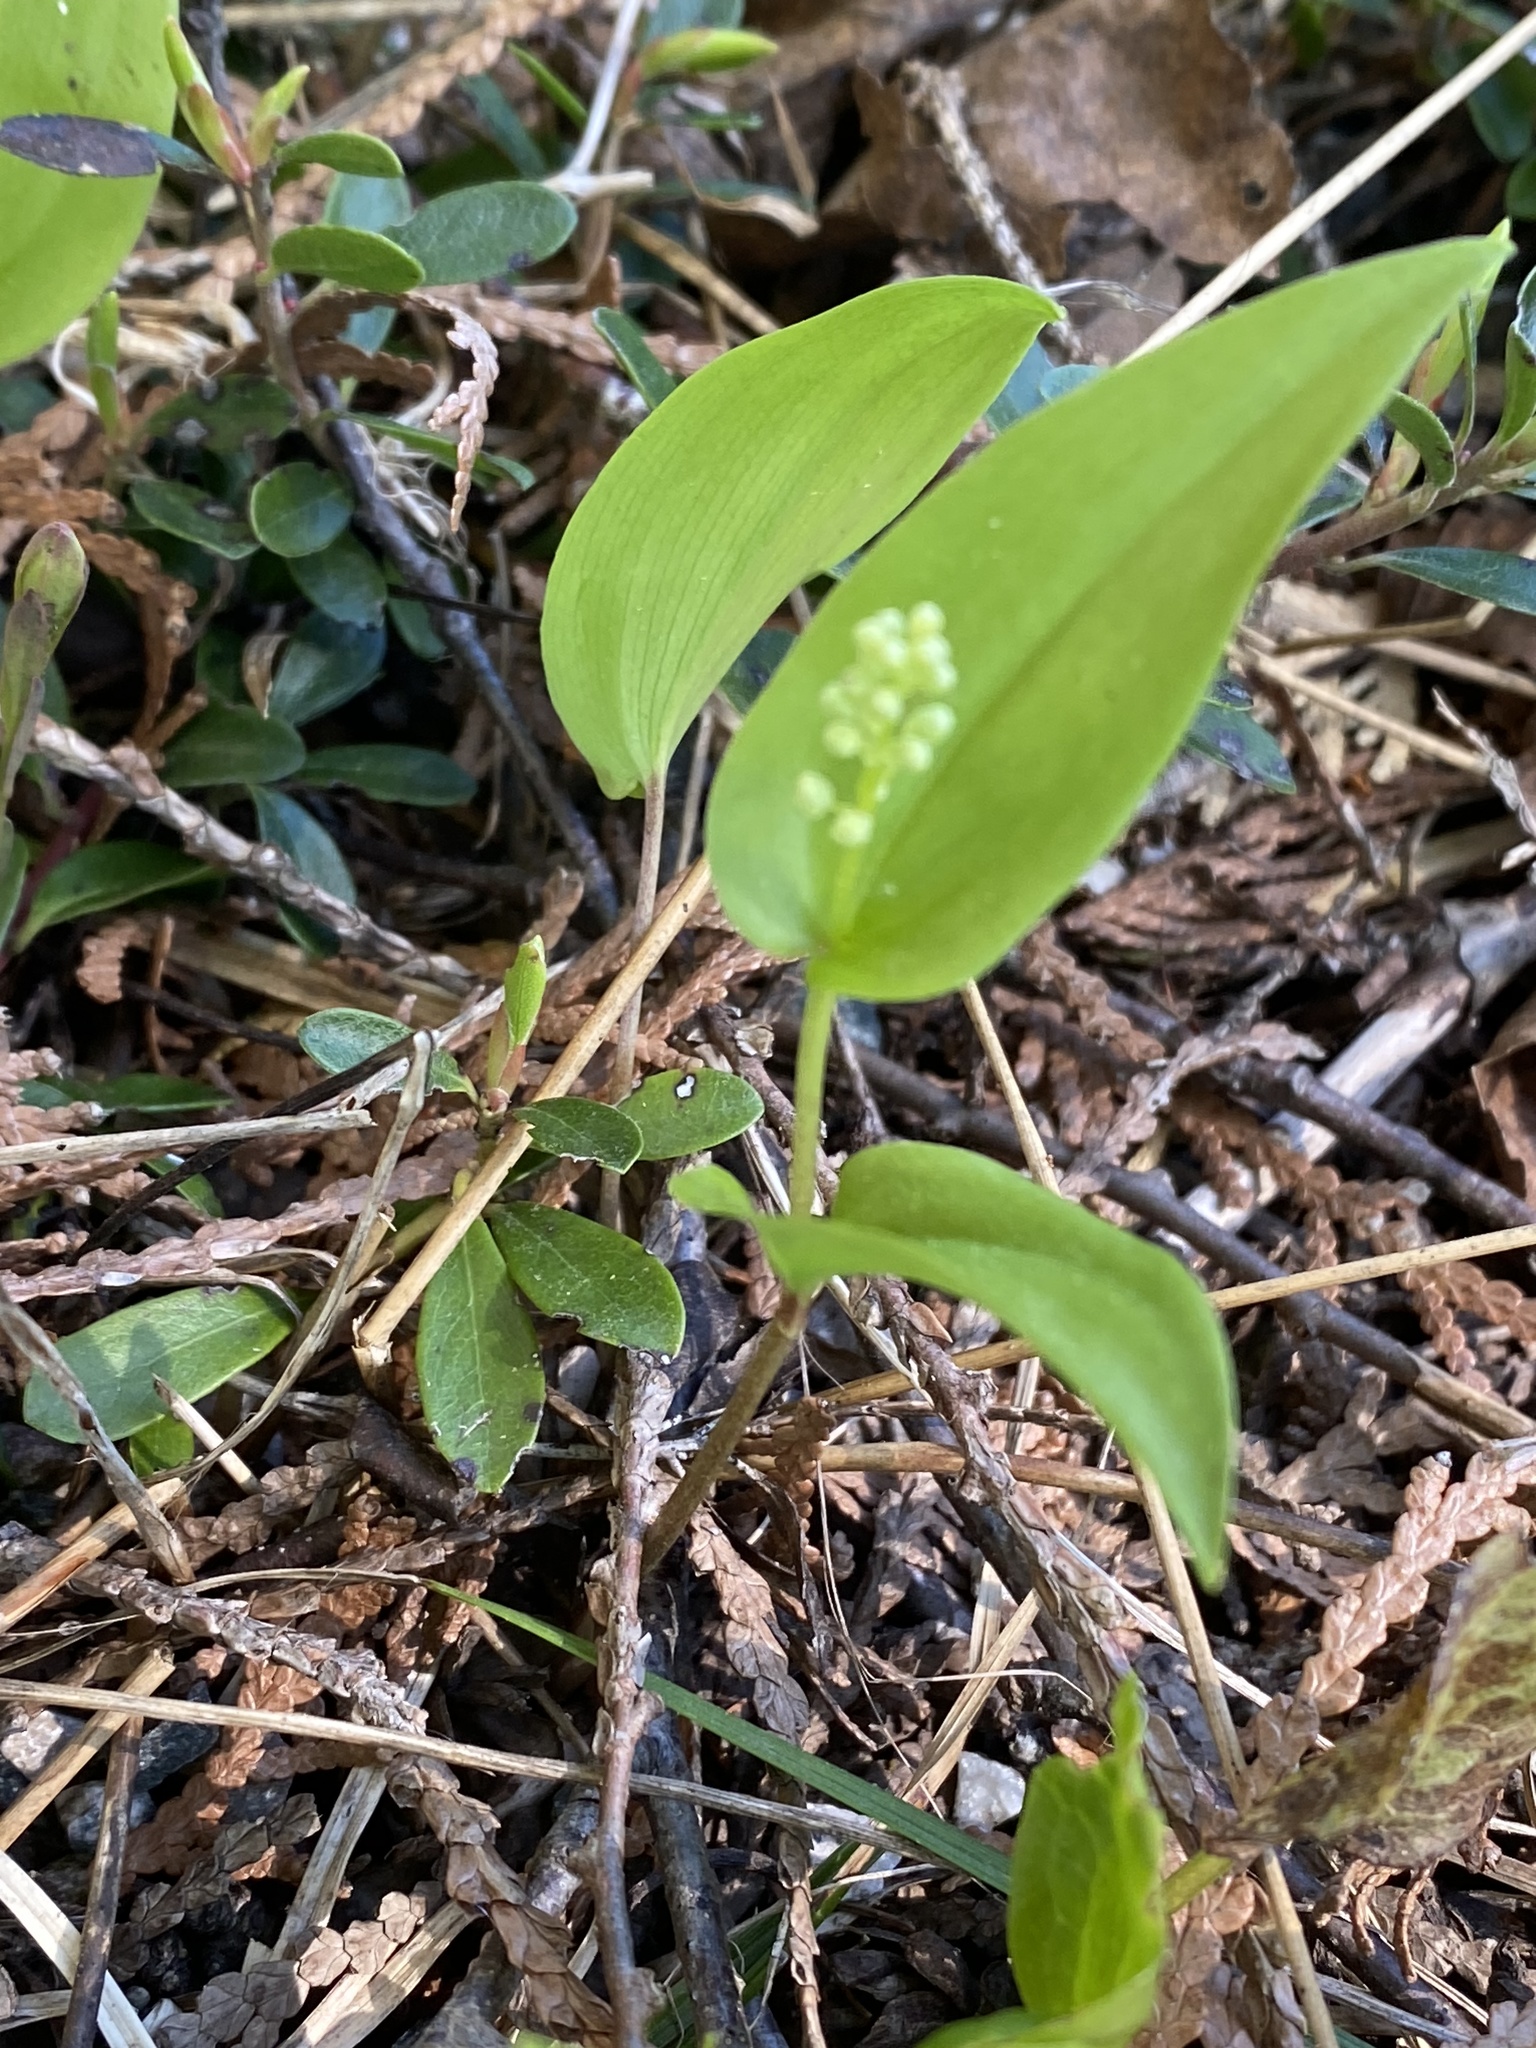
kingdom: Plantae
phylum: Tracheophyta
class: Liliopsida
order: Asparagales
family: Asparagaceae
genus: Maianthemum
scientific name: Maianthemum canadense
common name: False lily-of-the-valley
